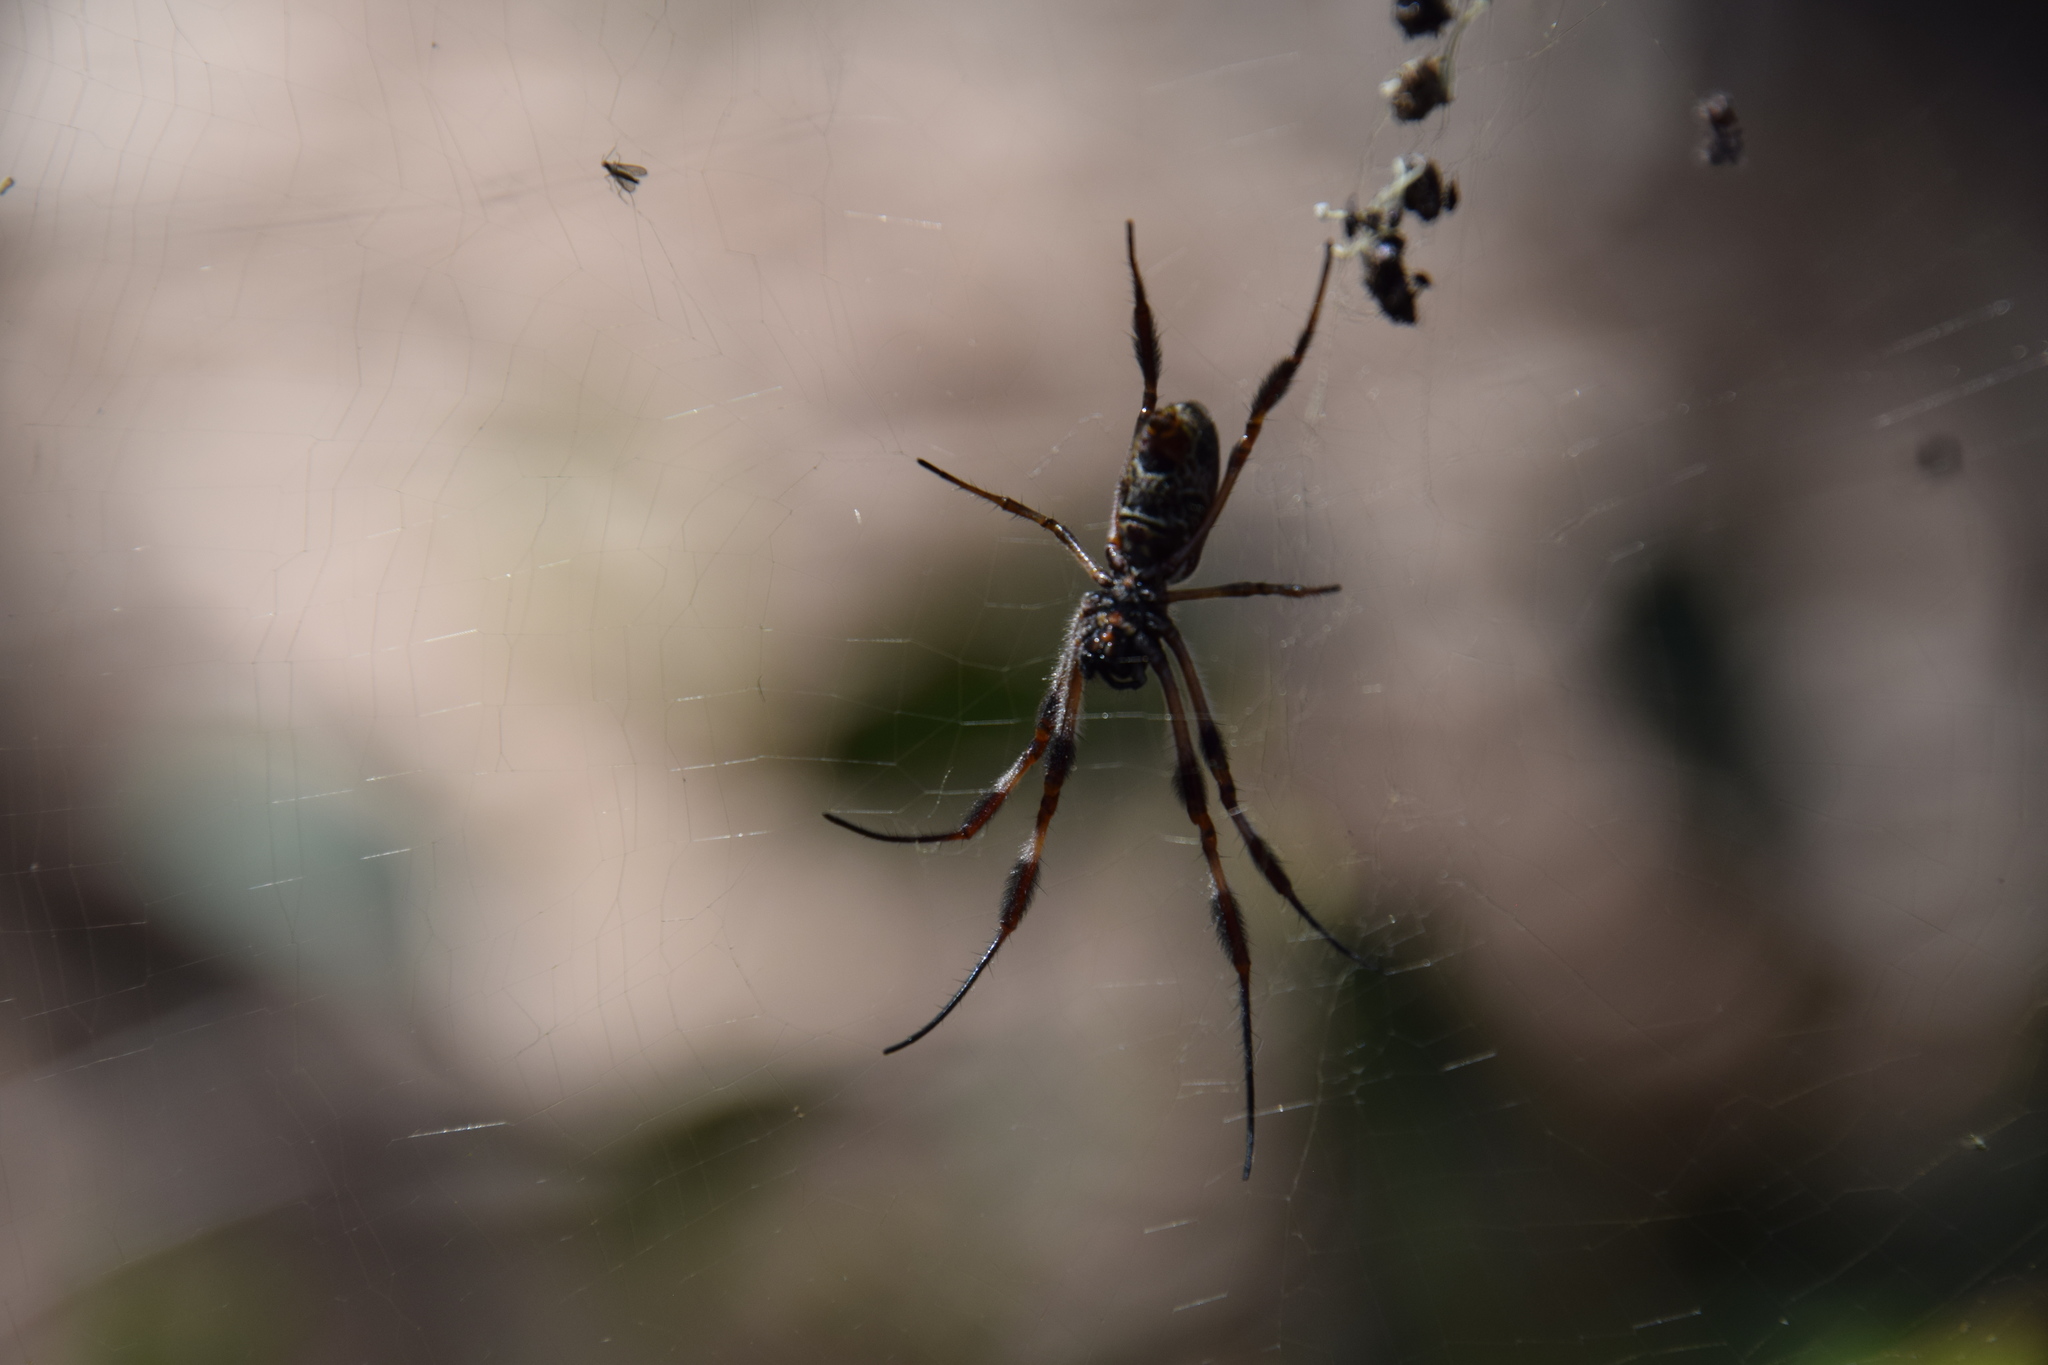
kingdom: Animalia
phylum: Arthropoda
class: Arachnida
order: Araneae
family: Araneidae
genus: Trichonephila
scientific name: Trichonephila edulis
